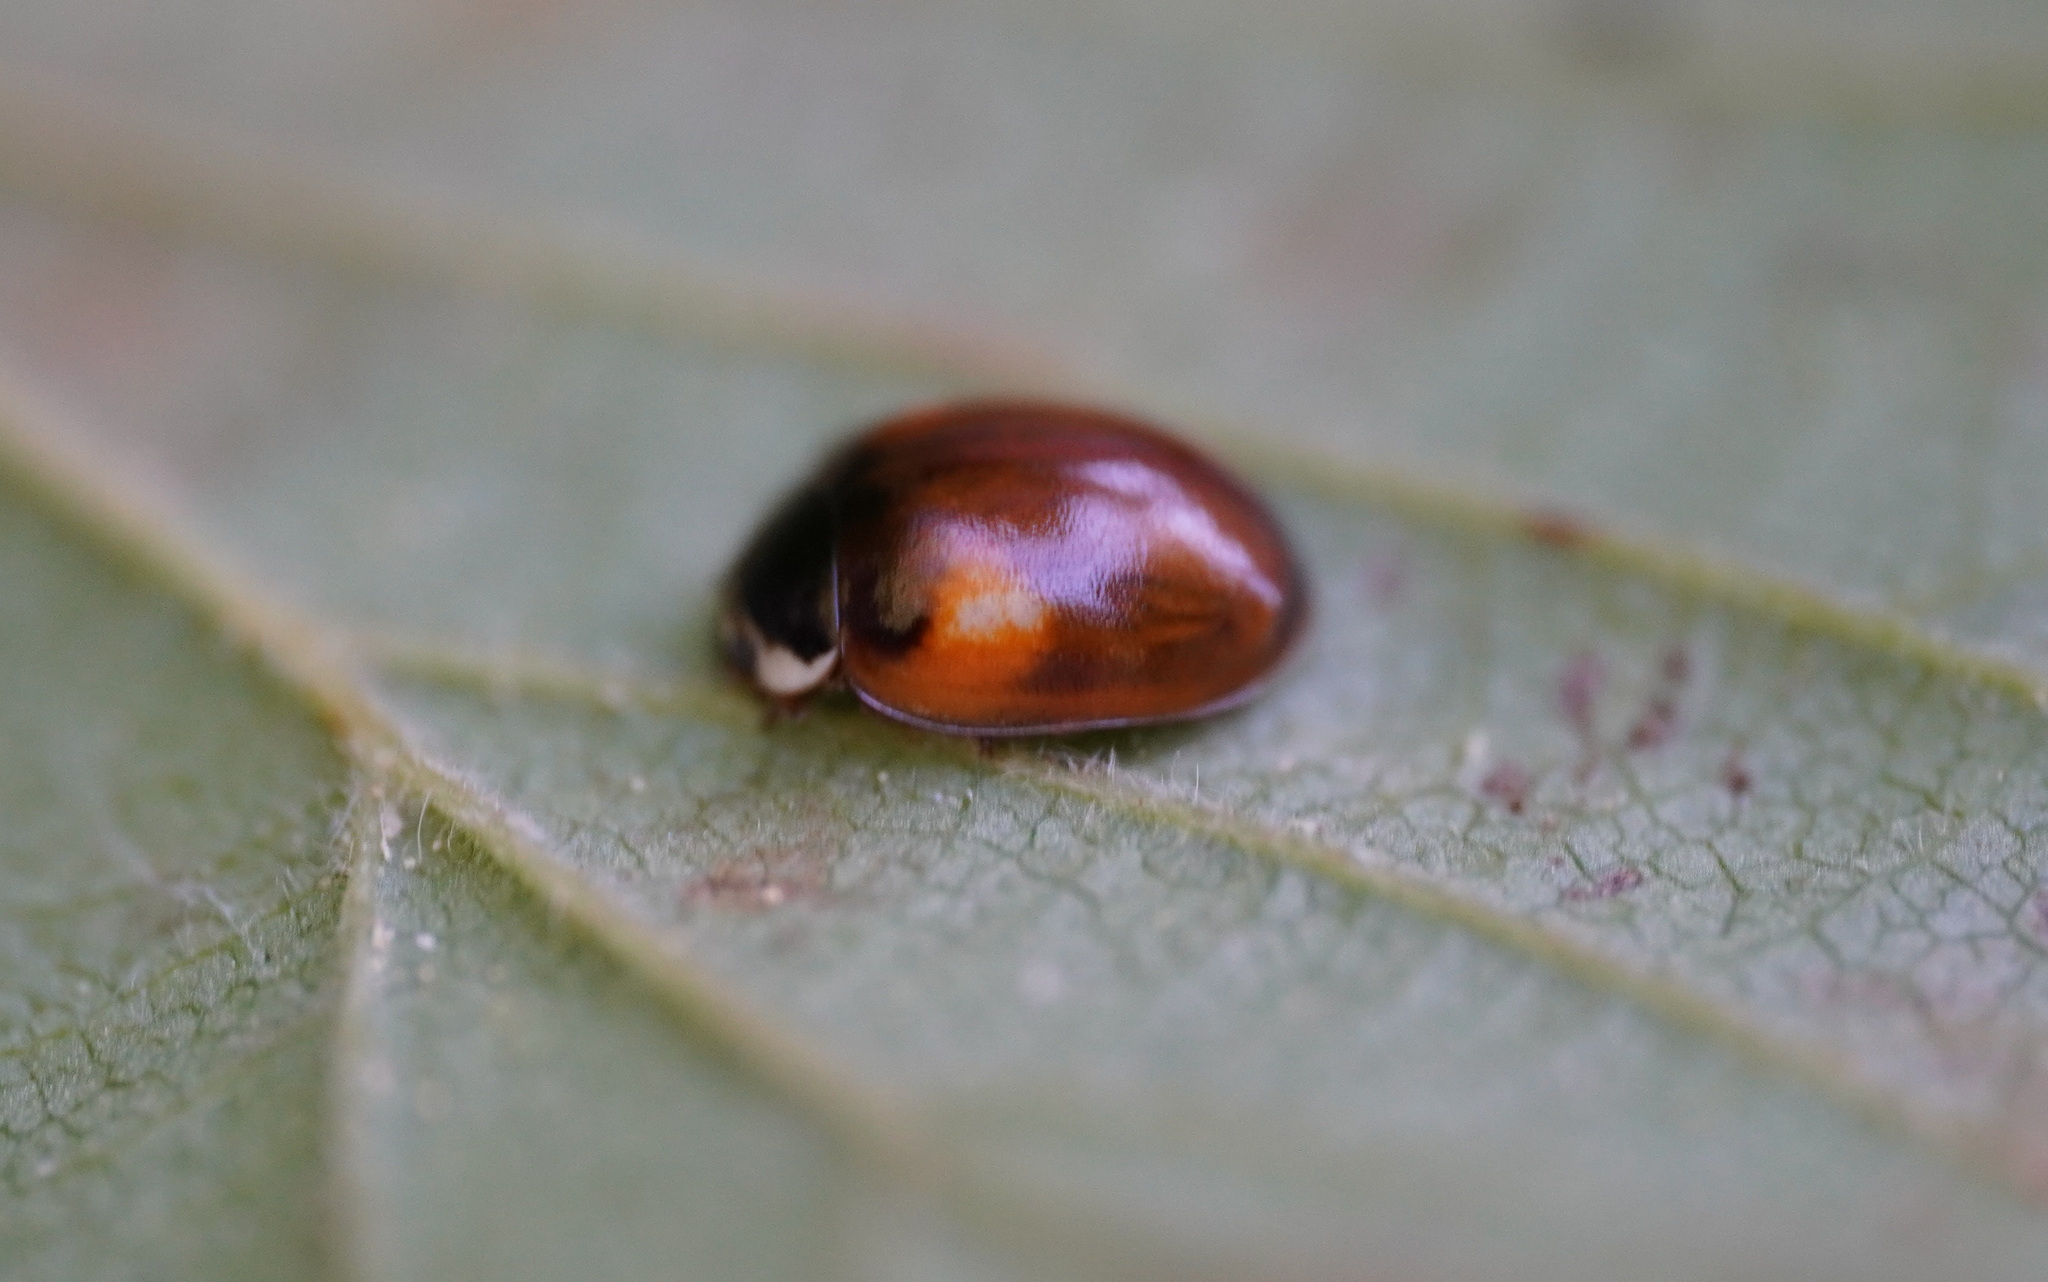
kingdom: Animalia
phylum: Arthropoda
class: Insecta
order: Coleoptera
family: Coccinellidae
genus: Adalia
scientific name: Adalia decempunctata
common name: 10-spot ladybird
